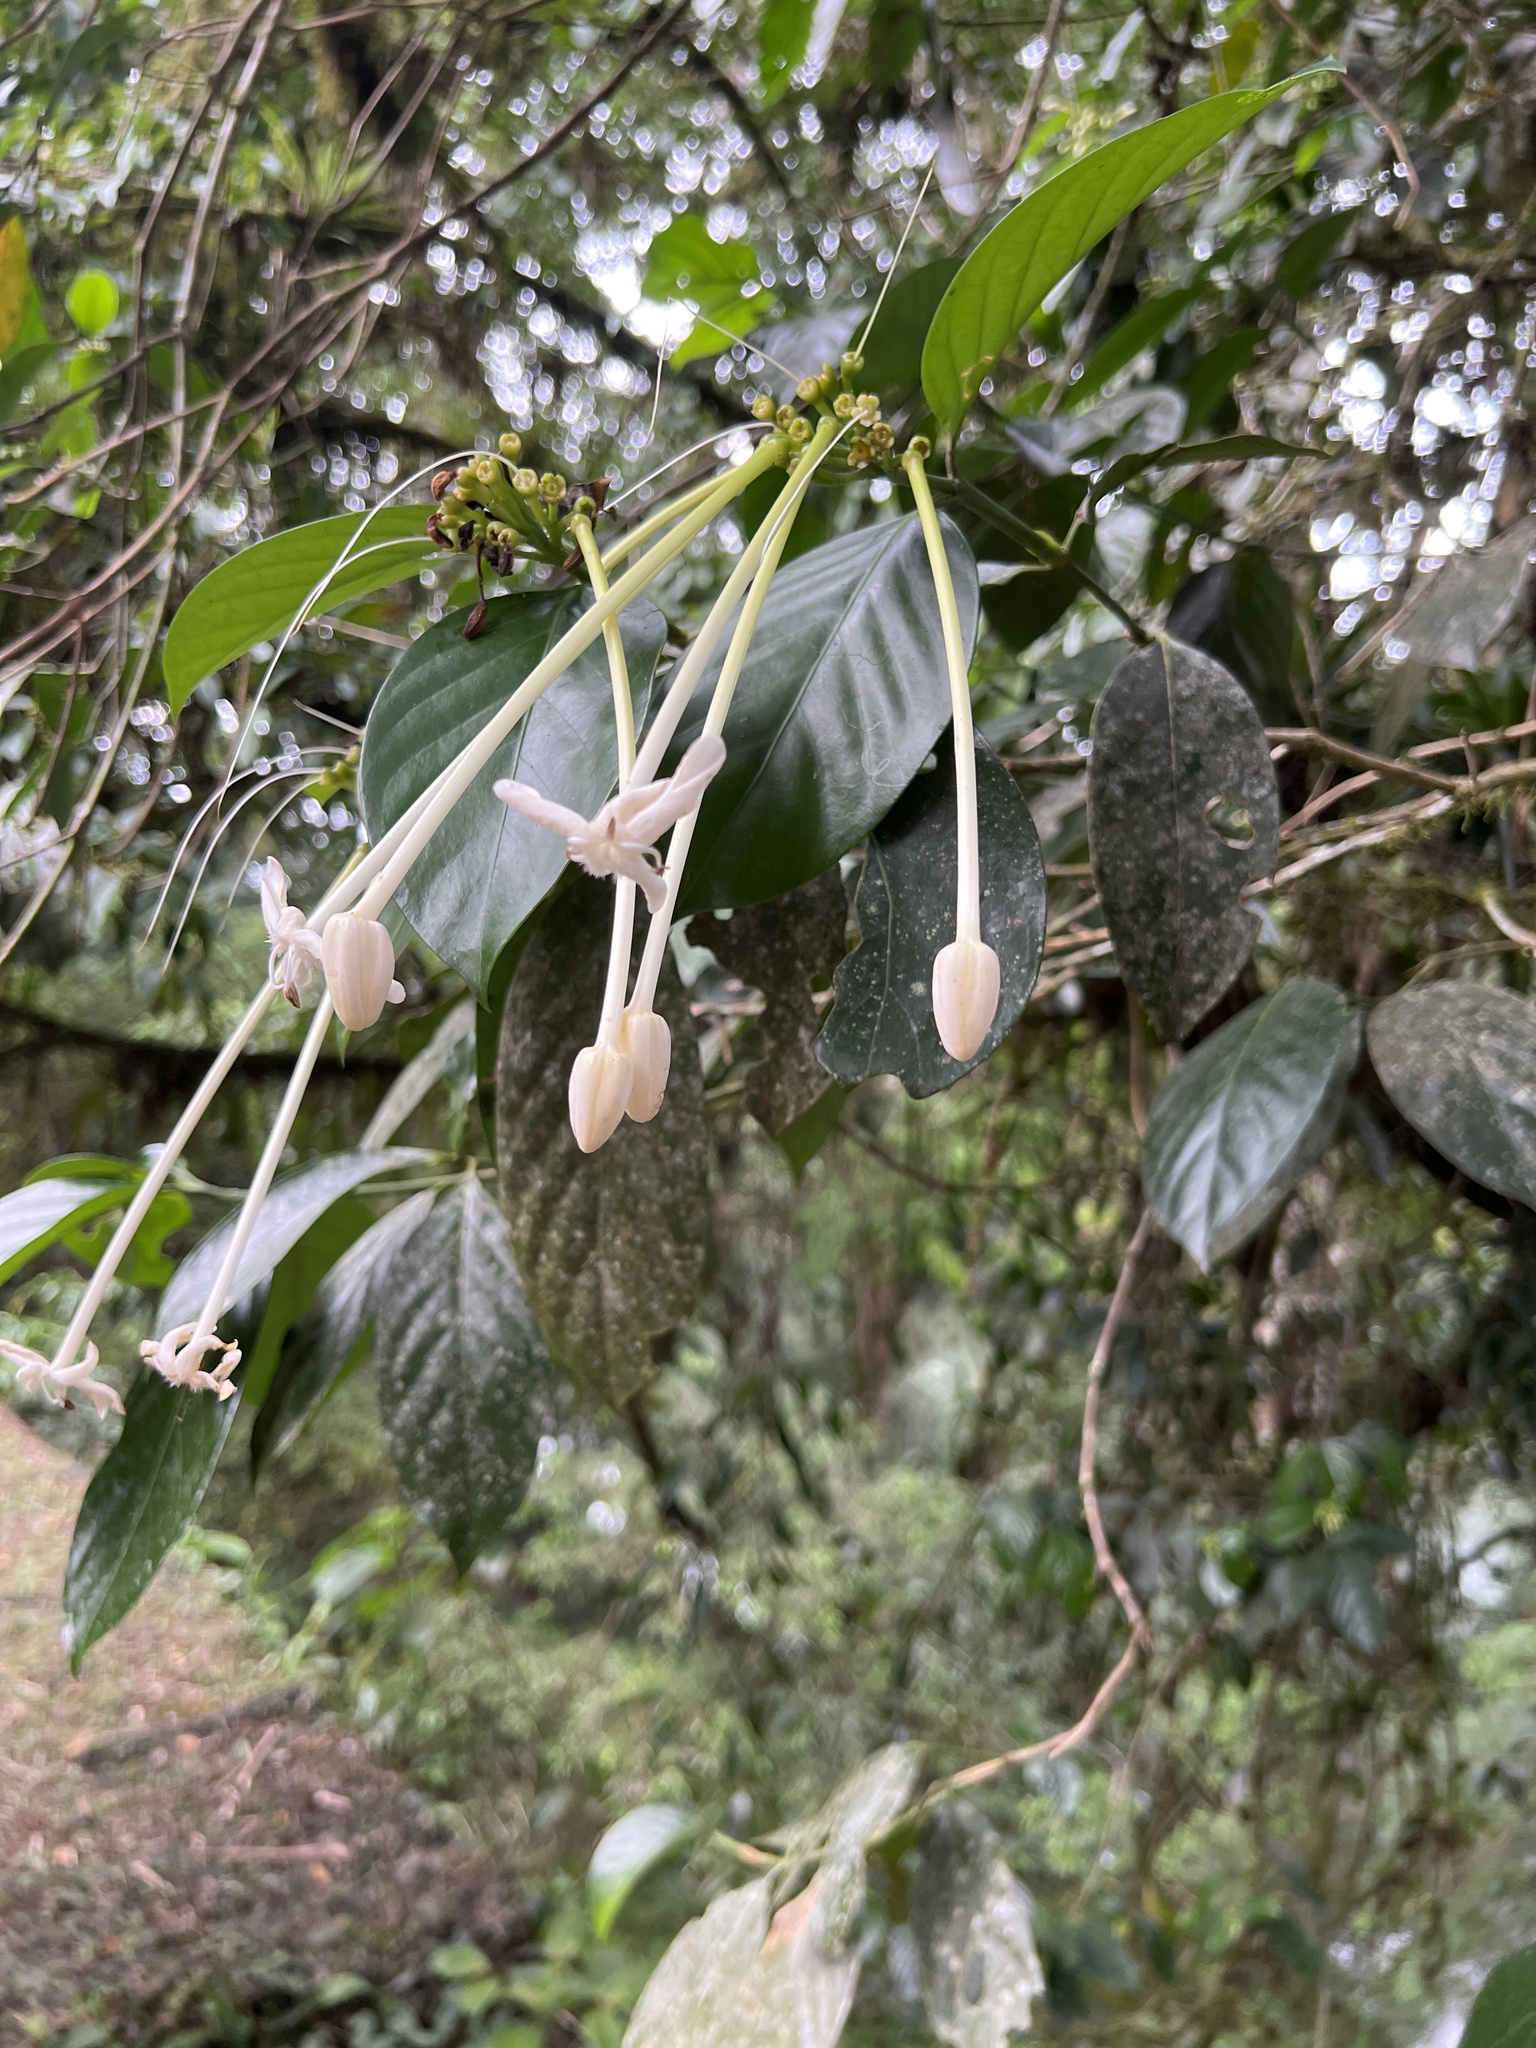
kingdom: Plantae
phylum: Tracheophyta
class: Magnoliopsida
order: Gentianales
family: Rubiaceae
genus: Posoqueria
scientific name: Posoqueria latifolia
